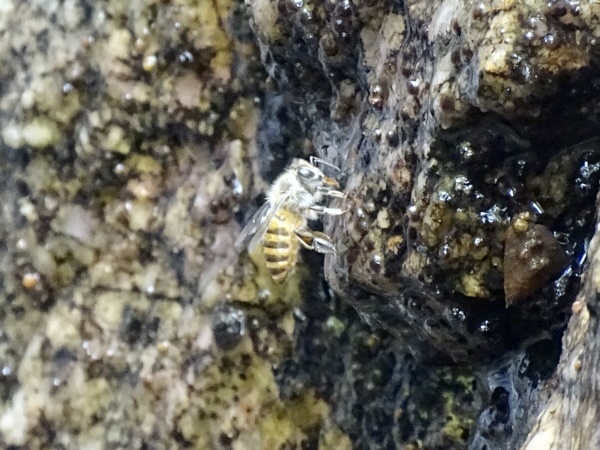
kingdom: Animalia
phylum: Arthropoda
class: Insecta
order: Hymenoptera
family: Apidae
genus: Apis
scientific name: Apis cerana
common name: Honey bee
